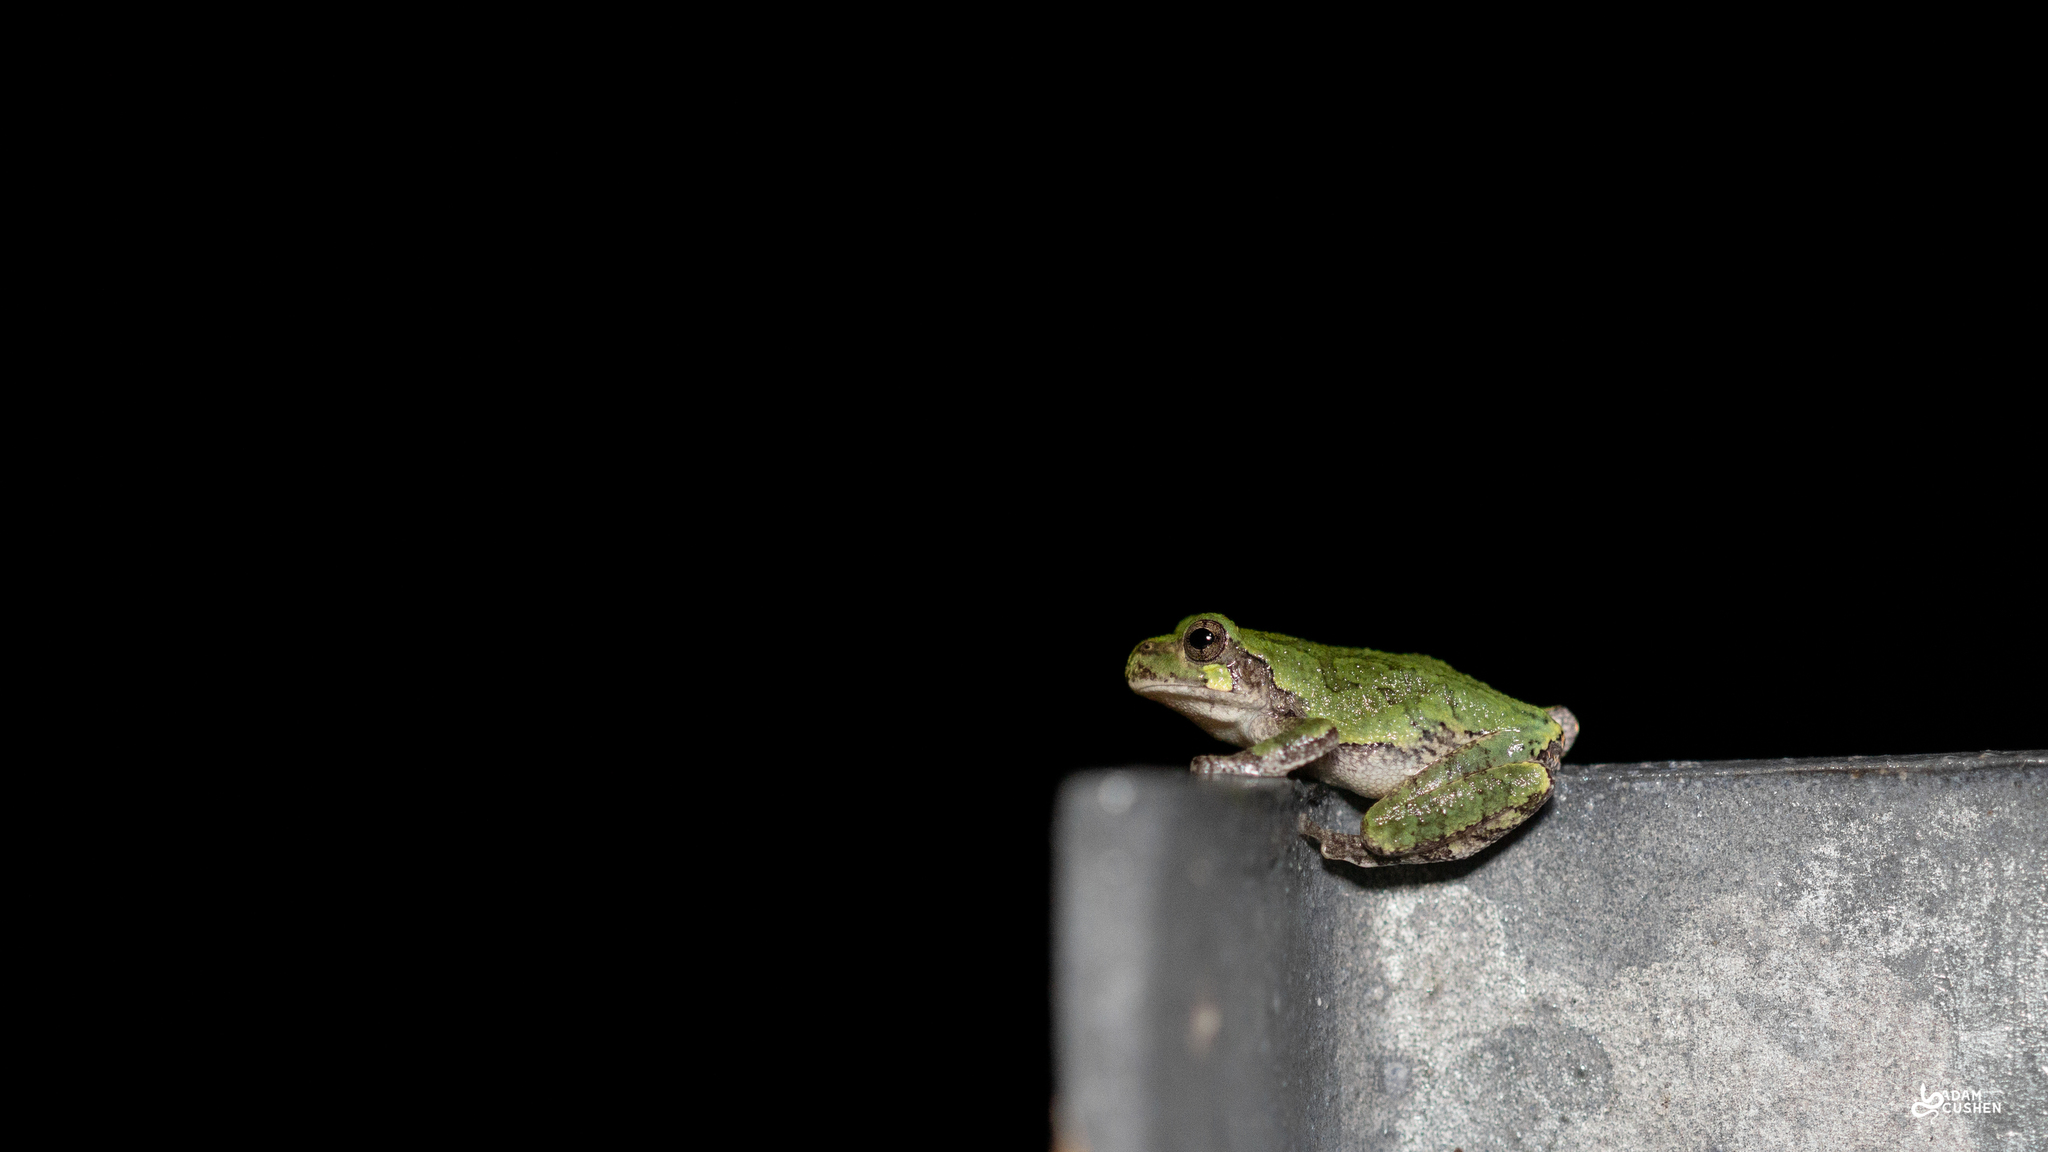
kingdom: Animalia
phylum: Chordata
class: Amphibia
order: Anura
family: Hylidae
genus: Dryophytes
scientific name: Dryophytes versicolor
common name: Gray treefrog
